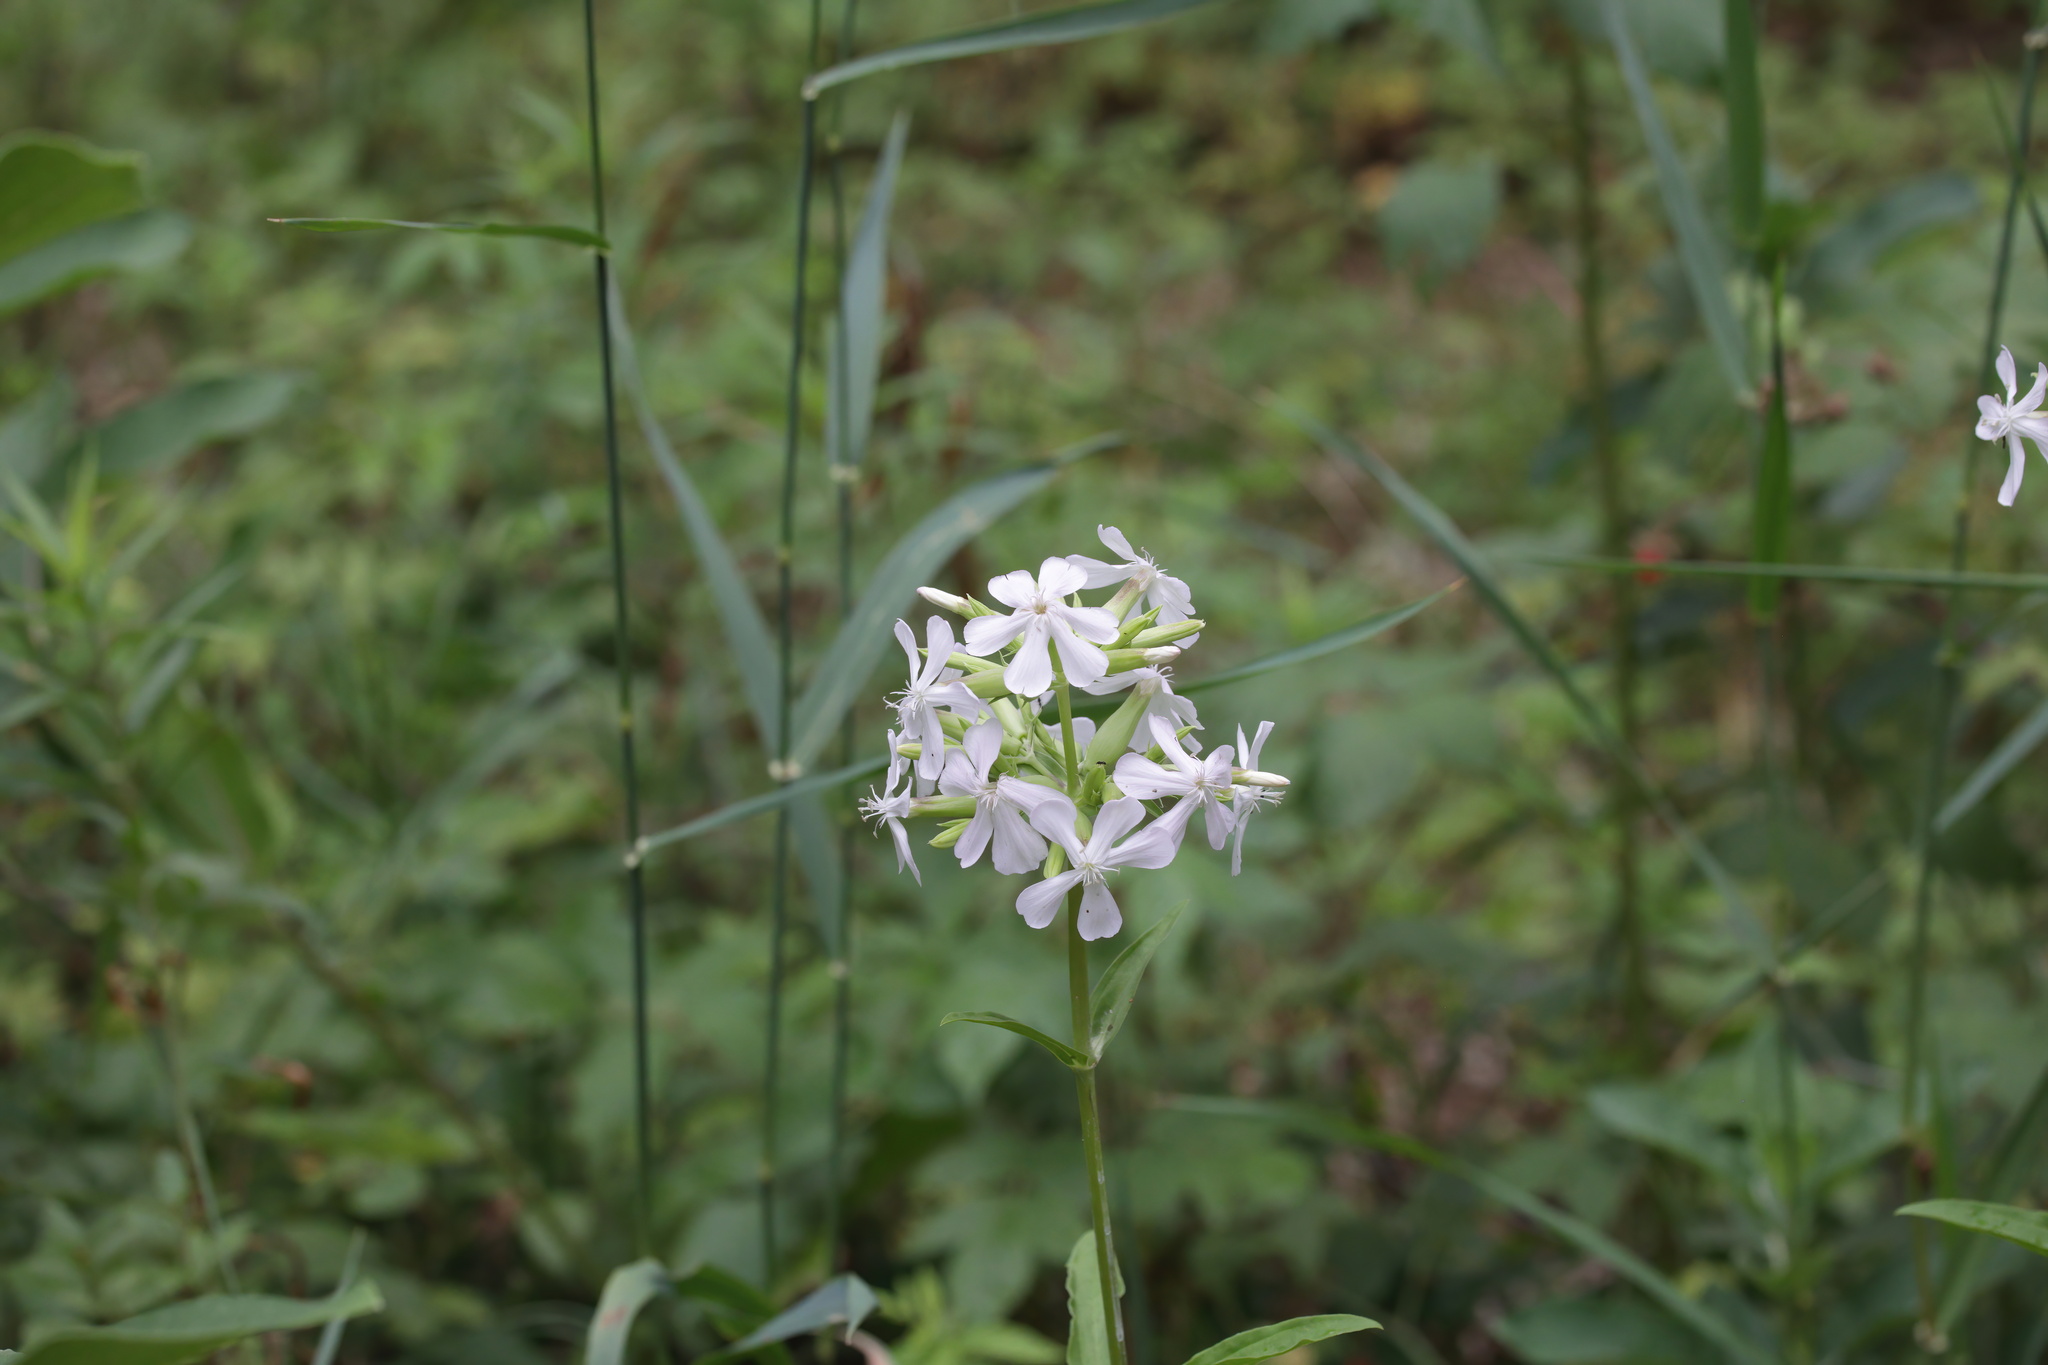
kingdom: Plantae
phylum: Tracheophyta
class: Magnoliopsida
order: Caryophyllales
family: Caryophyllaceae
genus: Saponaria
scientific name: Saponaria officinalis
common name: Soapwort
